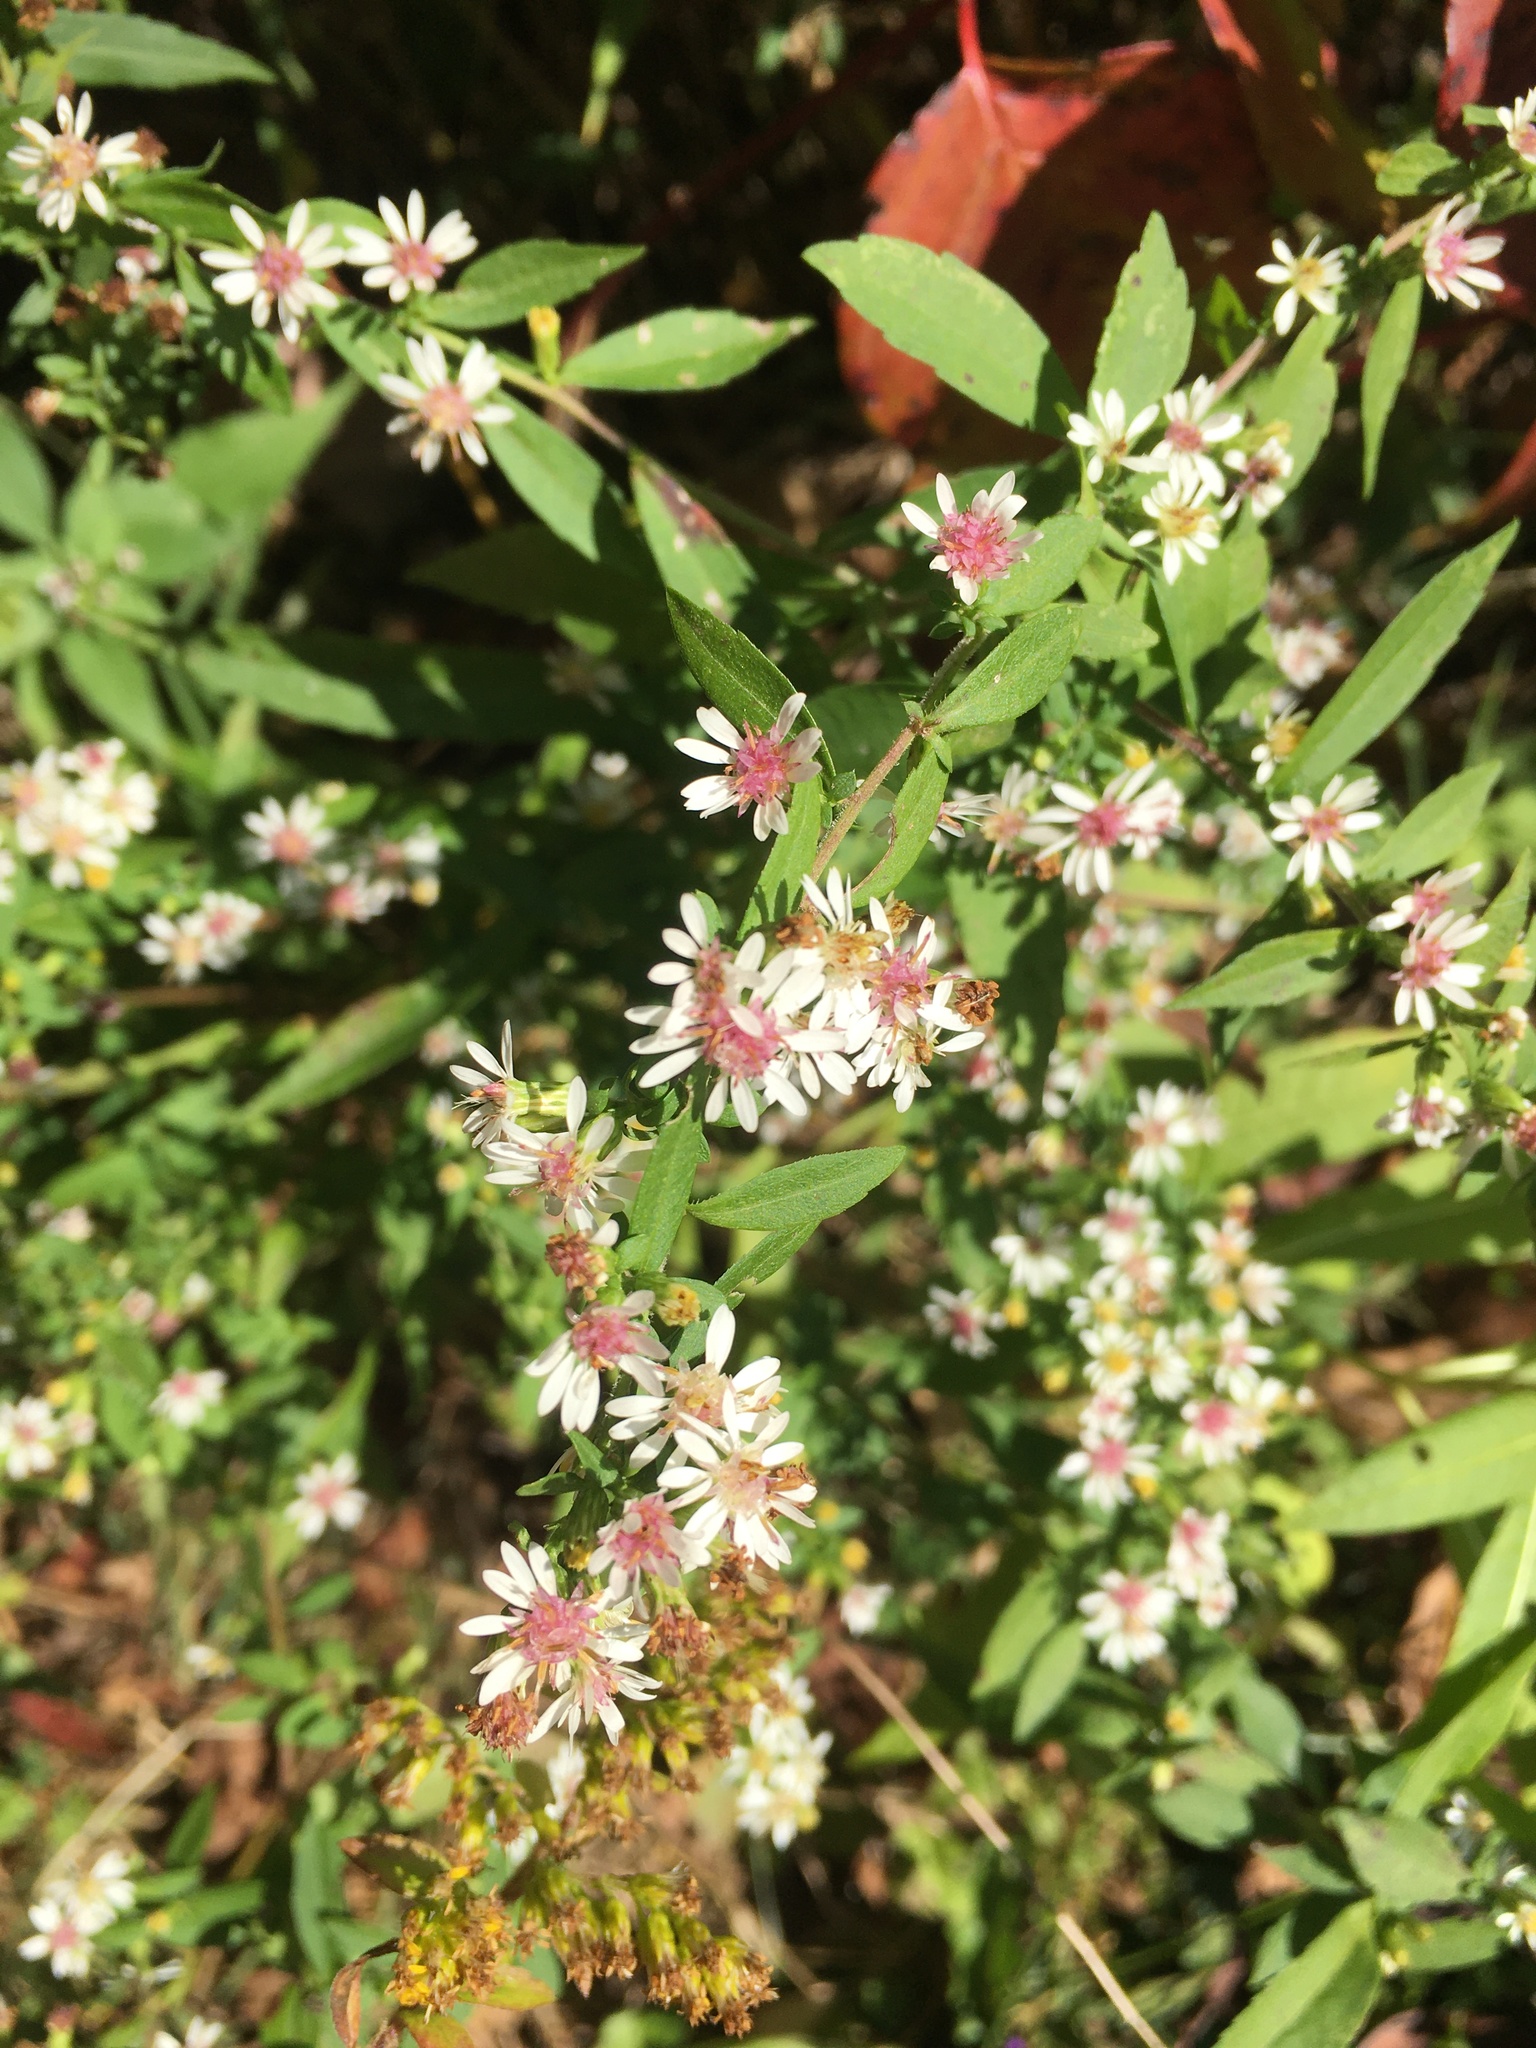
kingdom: Plantae
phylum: Tracheophyta
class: Magnoliopsida
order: Asterales
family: Asteraceae
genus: Symphyotrichum
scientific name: Symphyotrichum lateriflorum
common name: Calico aster
